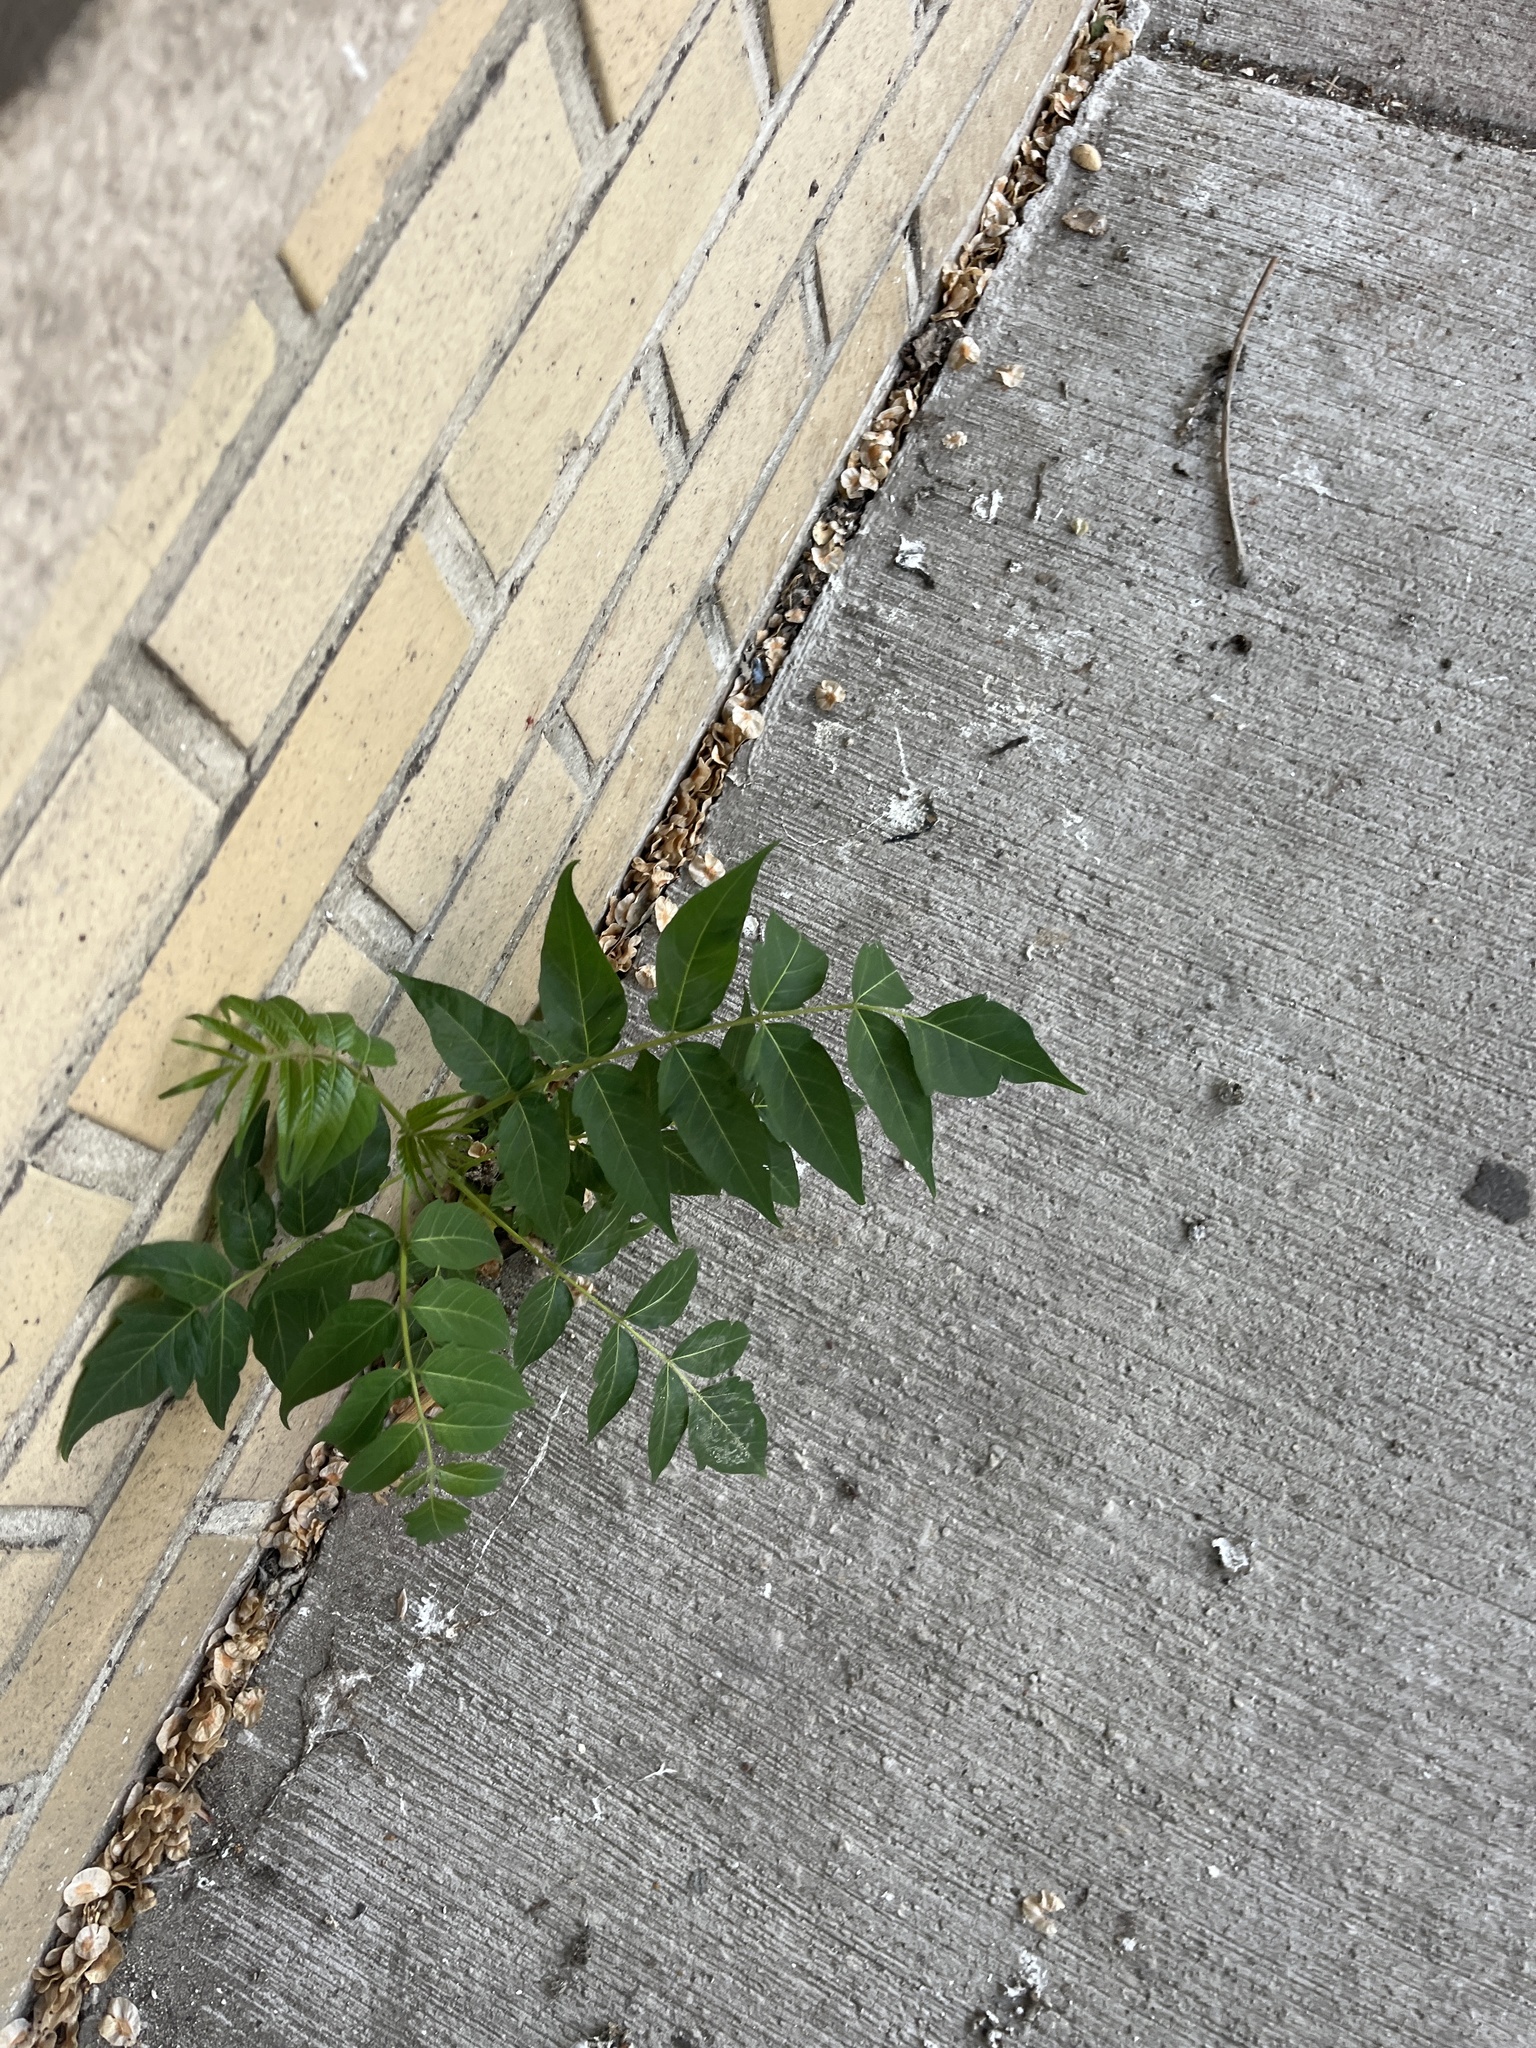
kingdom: Plantae
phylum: Tracheophyta
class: Magnoliopsida
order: Sapindales
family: Simaroubaceae
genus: Ailanthus
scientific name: Ailanthus altissima
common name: Tree-of-heaven
